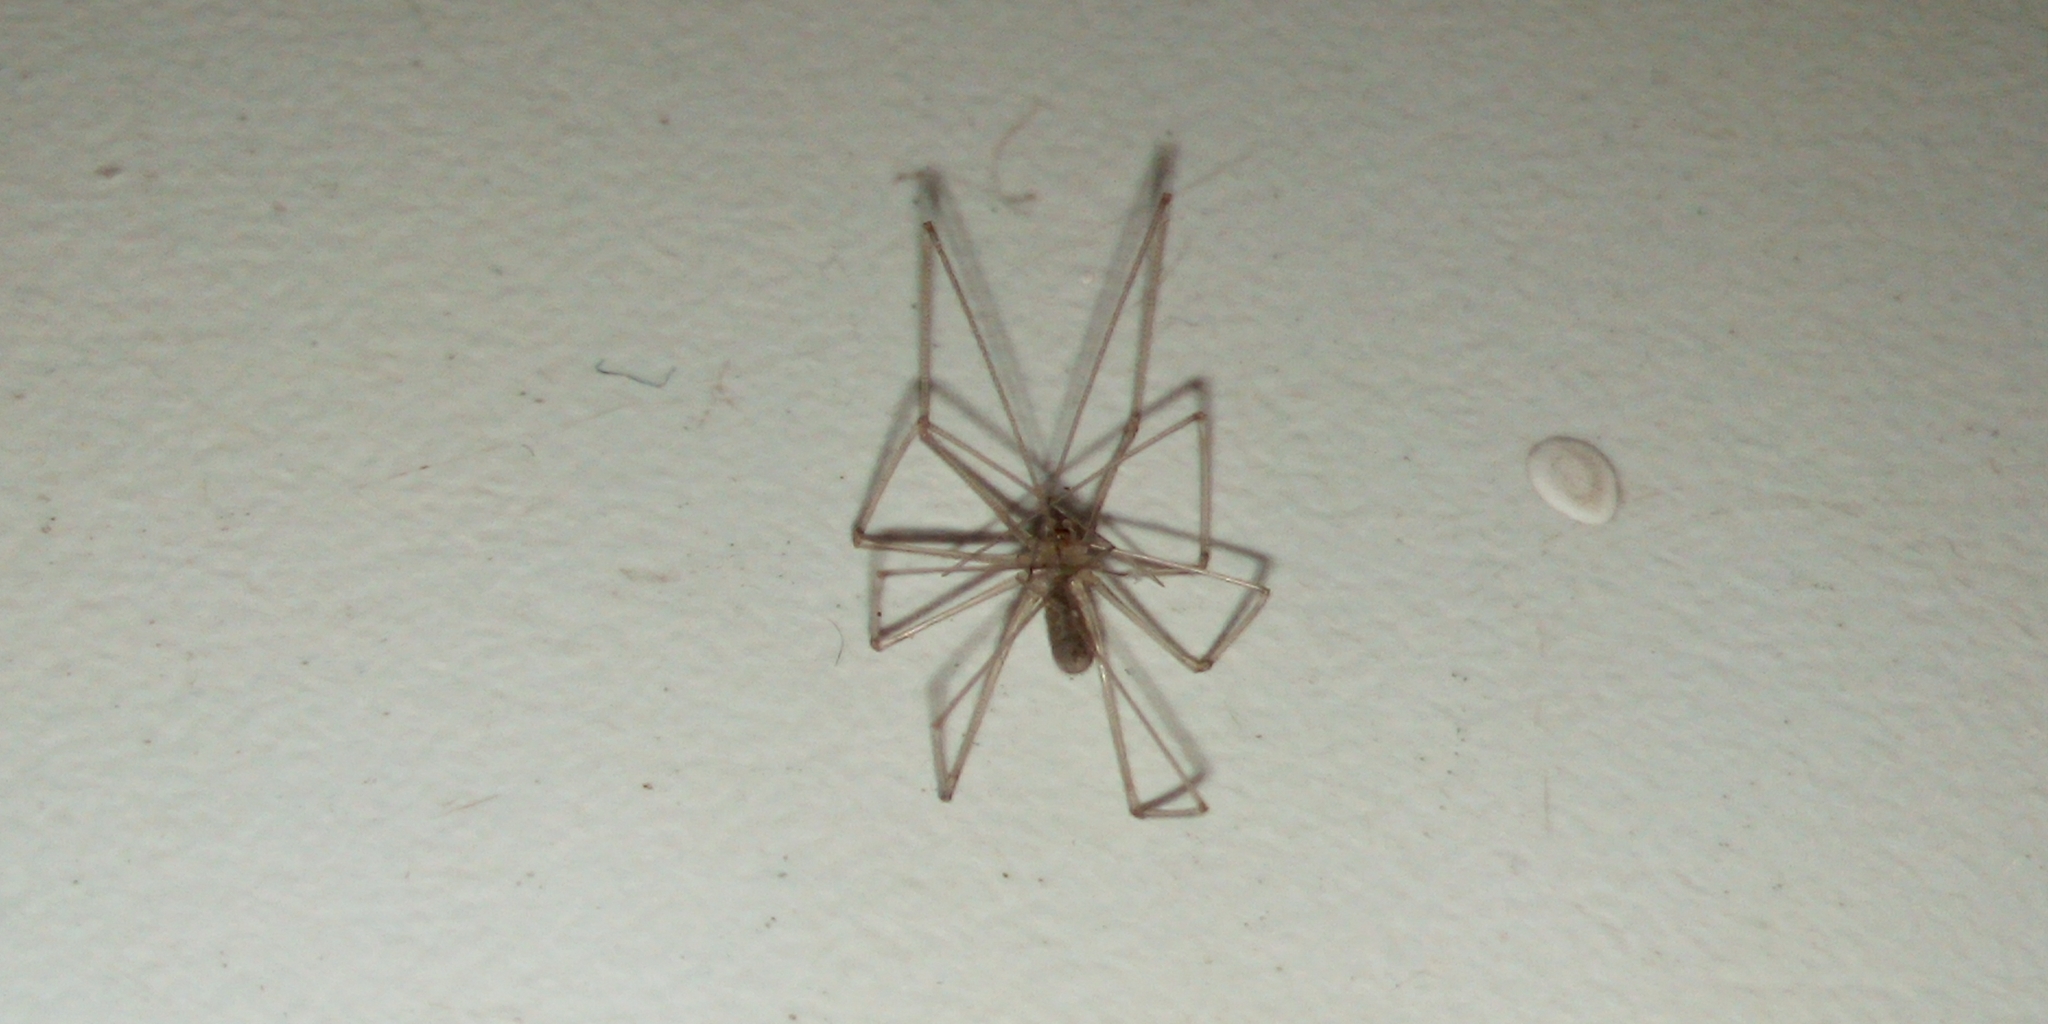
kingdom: Animalia
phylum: Arthropoda
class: Arachnida
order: Araneae
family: Pholcidae
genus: Pholcus
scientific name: Pholcus phalangioides
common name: Longbodied cellar spider
